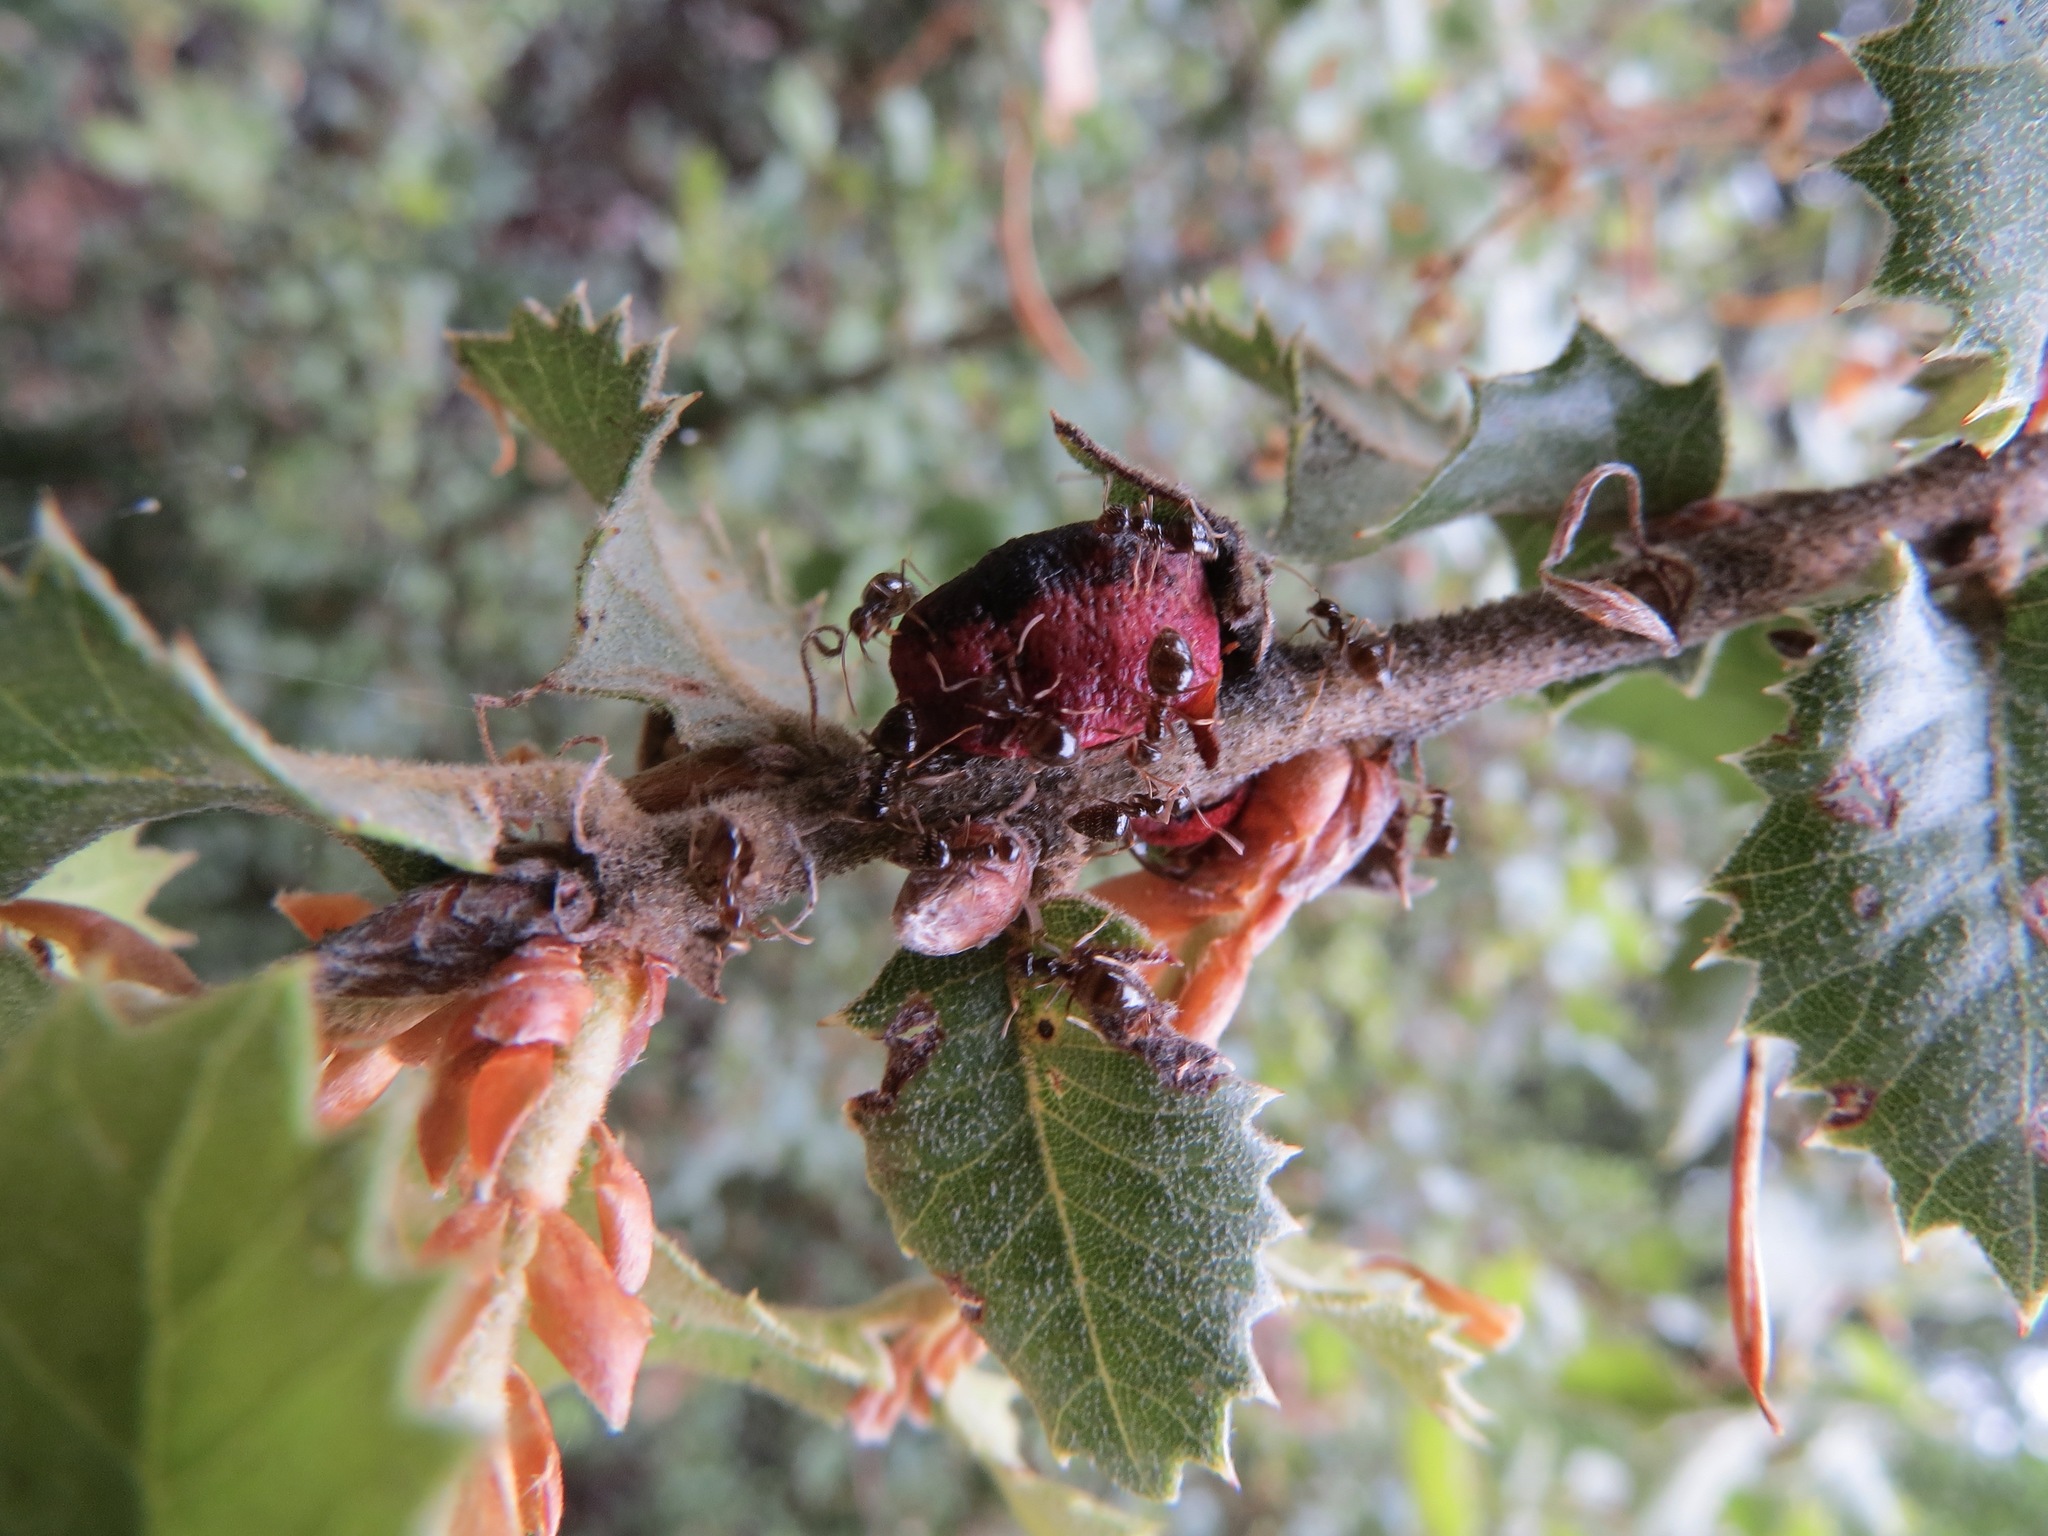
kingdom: Animalia
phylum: Arthropoda
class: Insecta
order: Hymenoptera
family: Cynipidae
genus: Disholandricus
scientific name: Disholandricus
